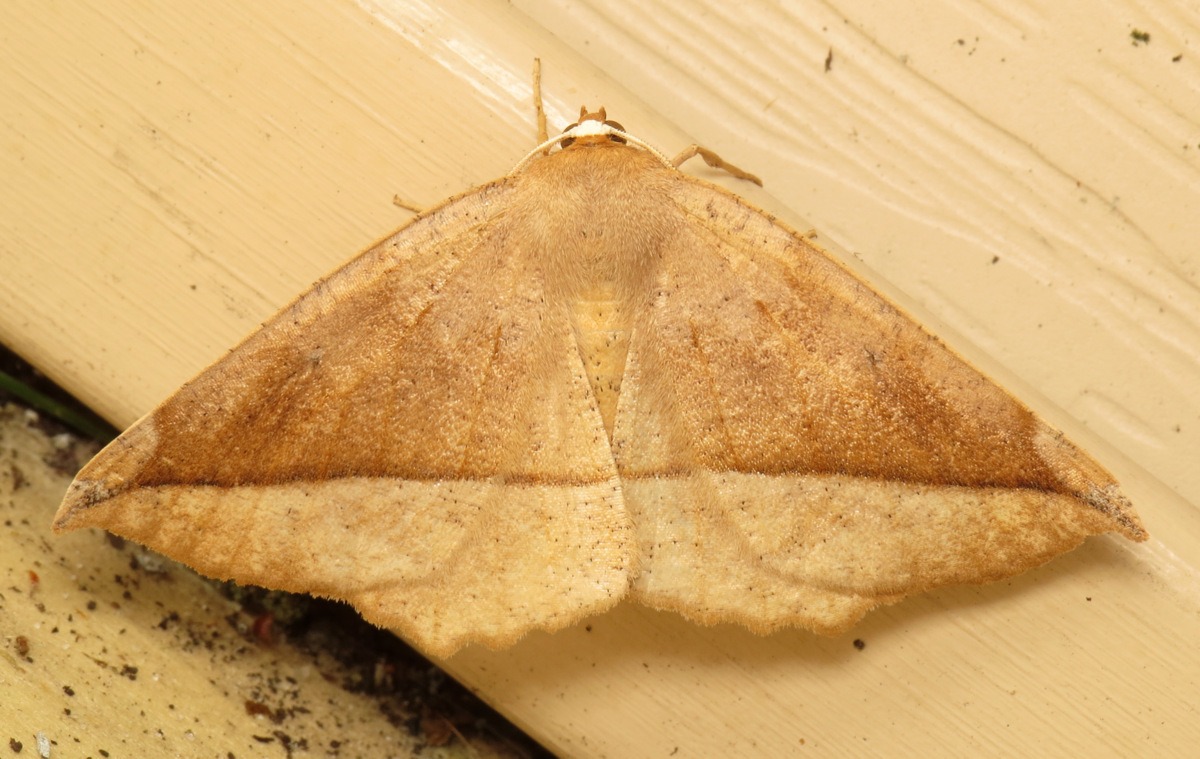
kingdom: Animalia
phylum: Arthropoda
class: Insecta
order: Lepidoptera
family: Geometridae
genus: Eutrapela
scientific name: Eutrapela clemataria
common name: Curved-toothed geometer
